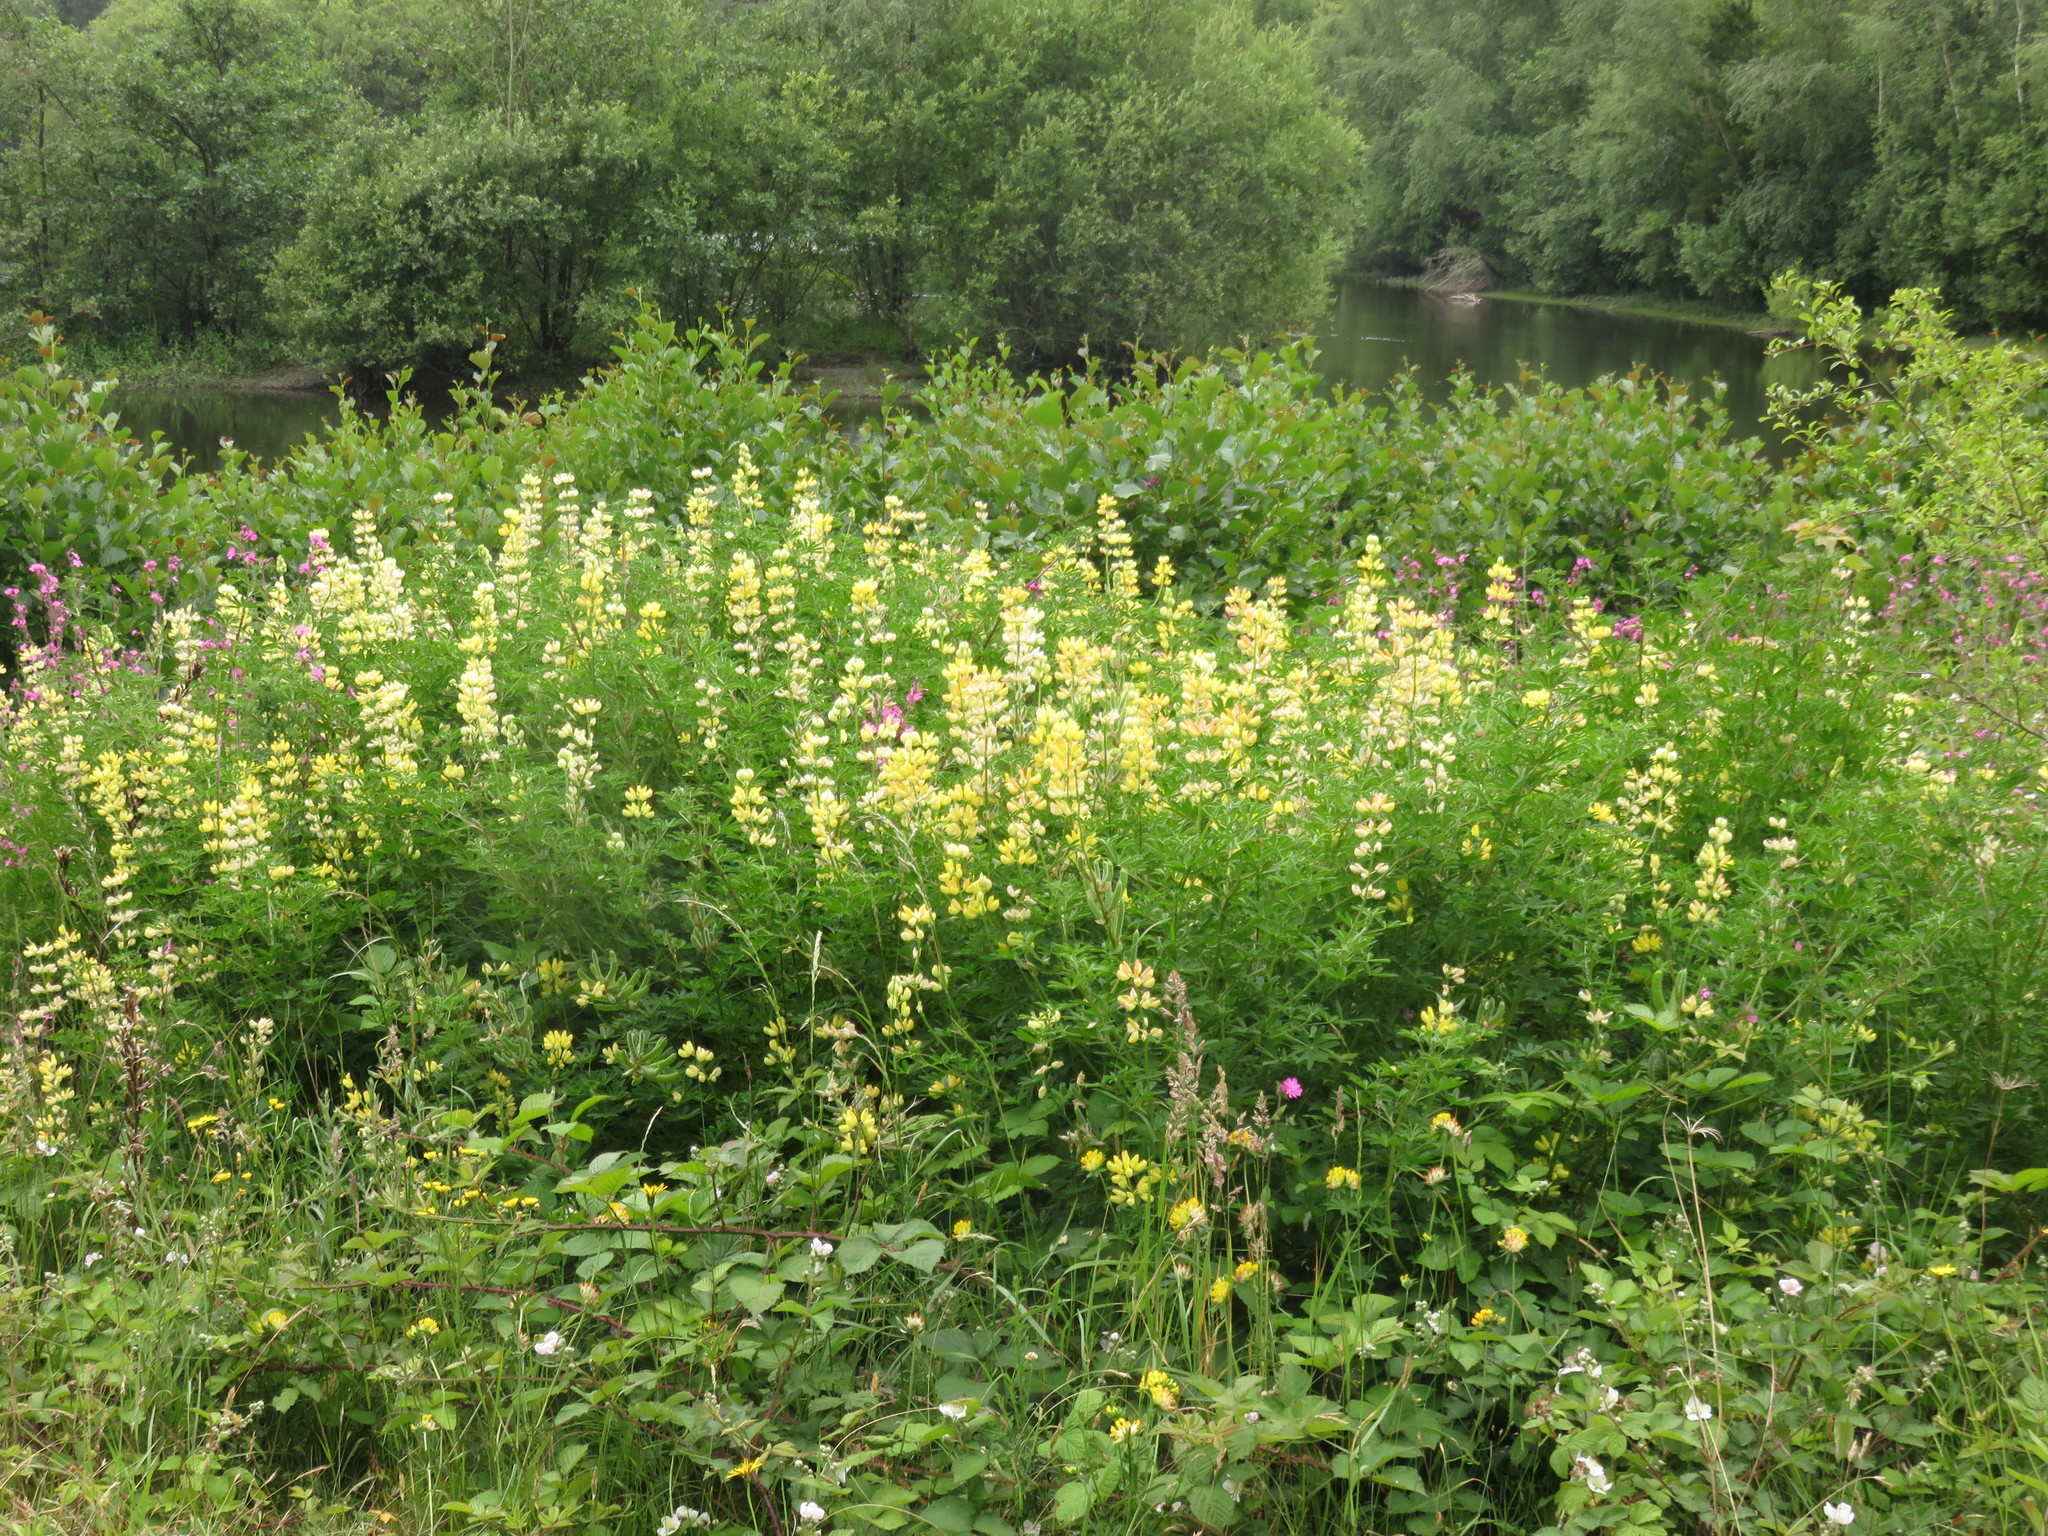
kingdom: Plantae
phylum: Tracheophyta
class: Magnoliopsida
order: Fabales
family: Fabaceae
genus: Lupinus
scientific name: Lupinus arboreus
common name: Yellow bush lupine
